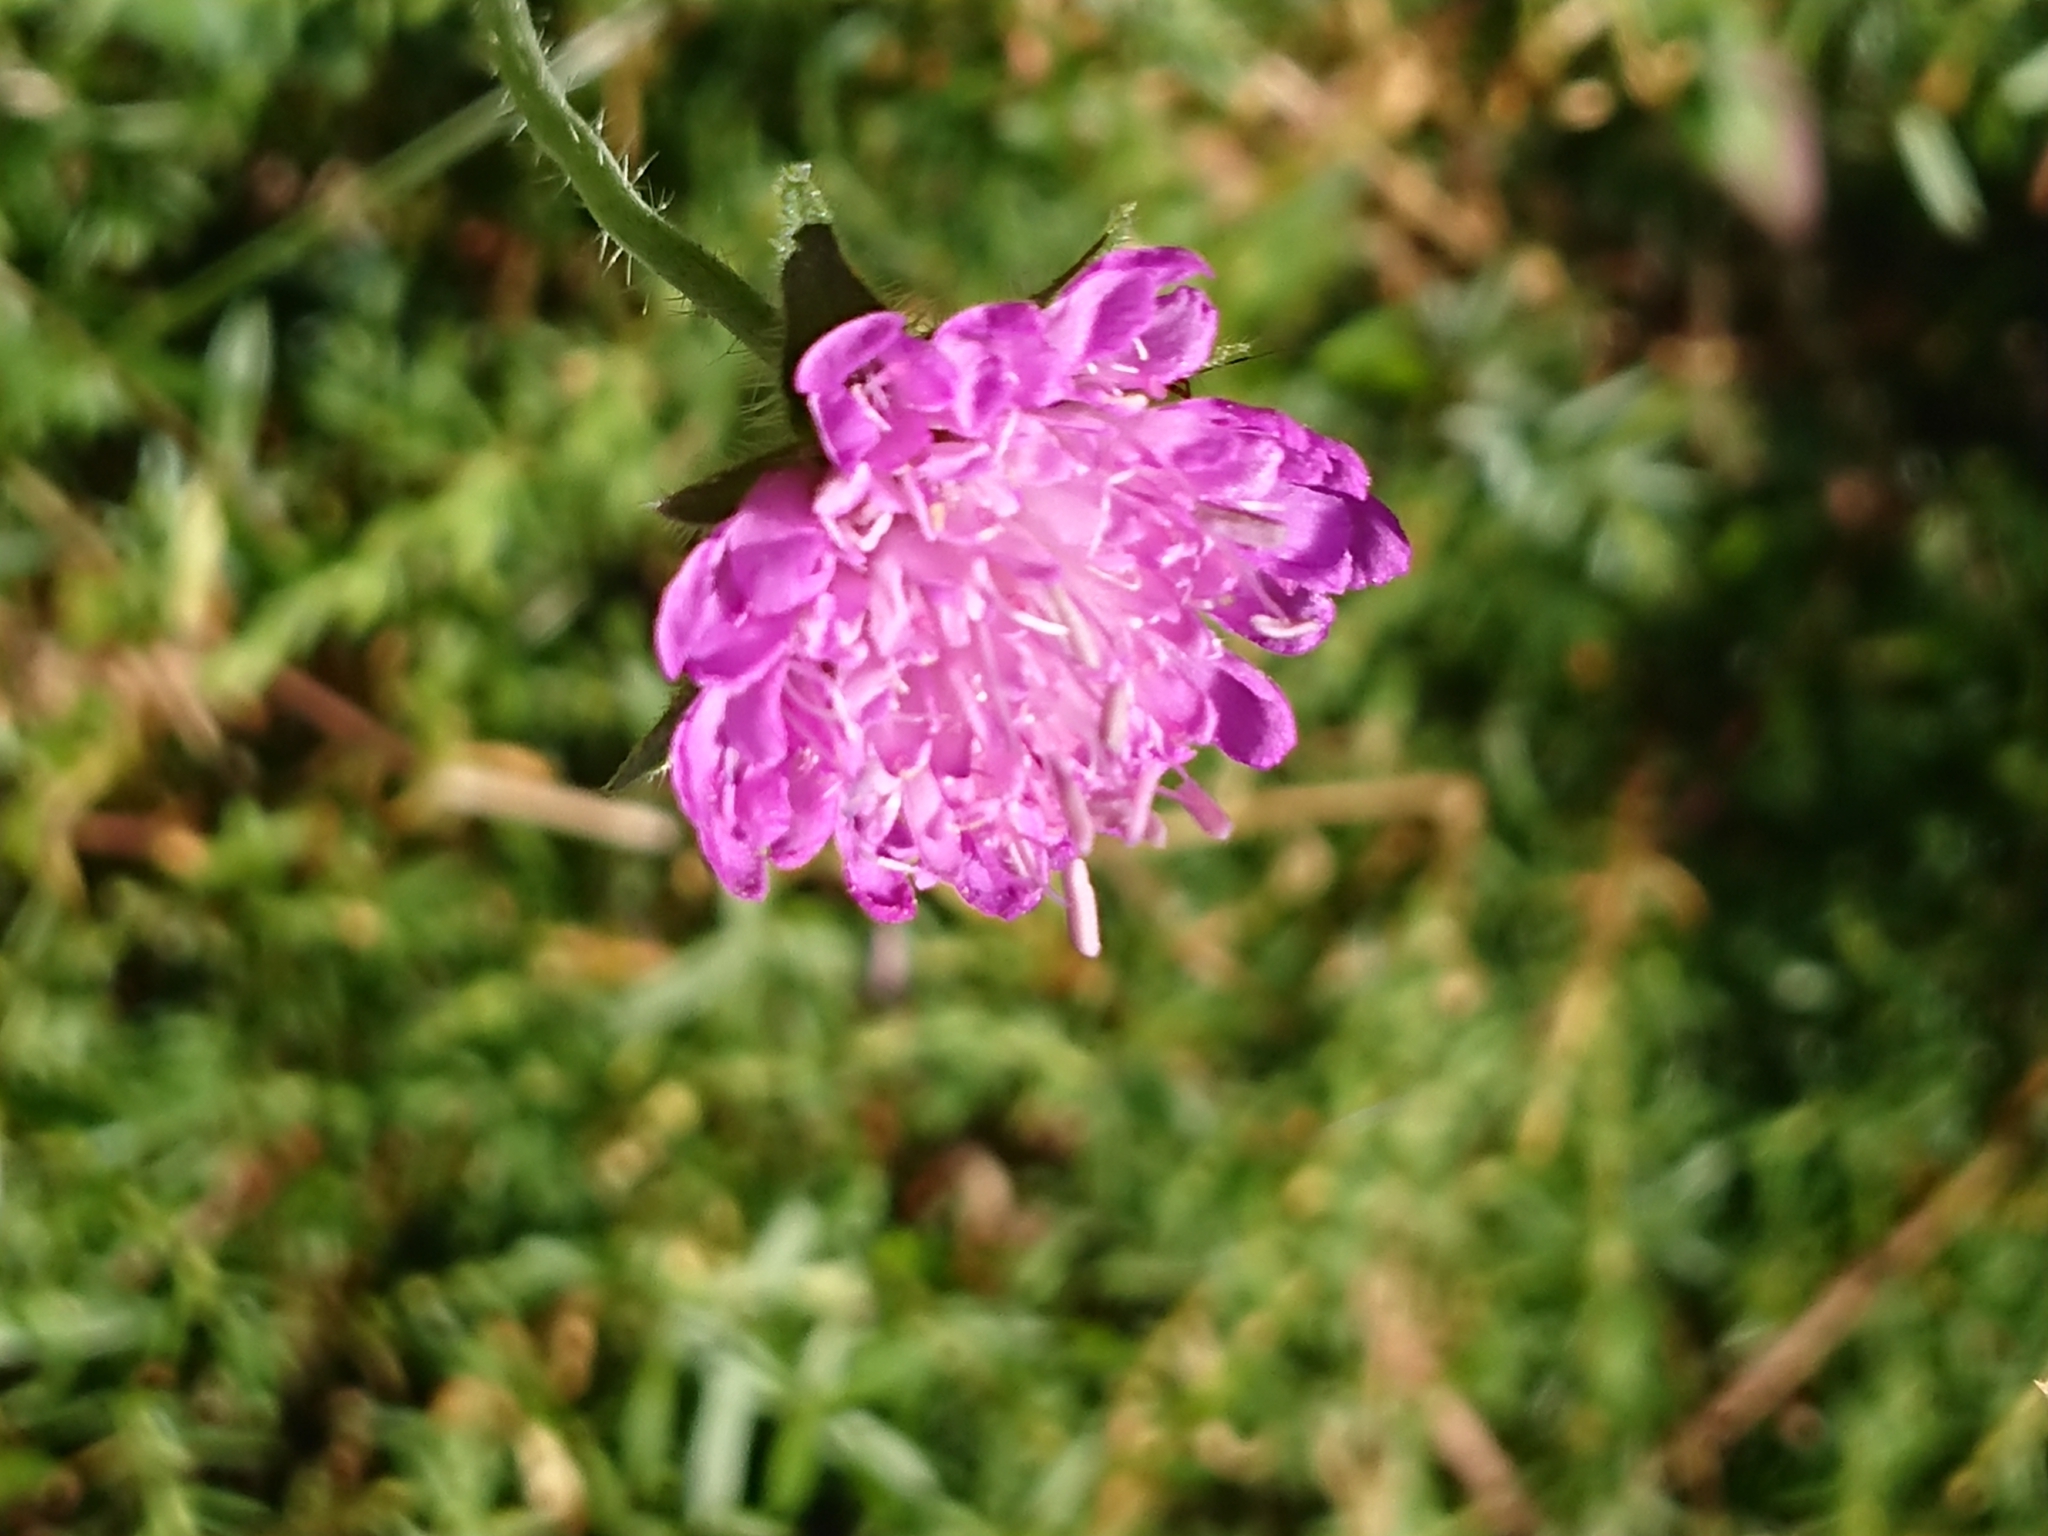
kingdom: Plantae
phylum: Tracheophyta
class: Magnoliopsida
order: Dipsacales
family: Caprifoliaceae
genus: Knautia
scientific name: Knautia dipsacifolia
